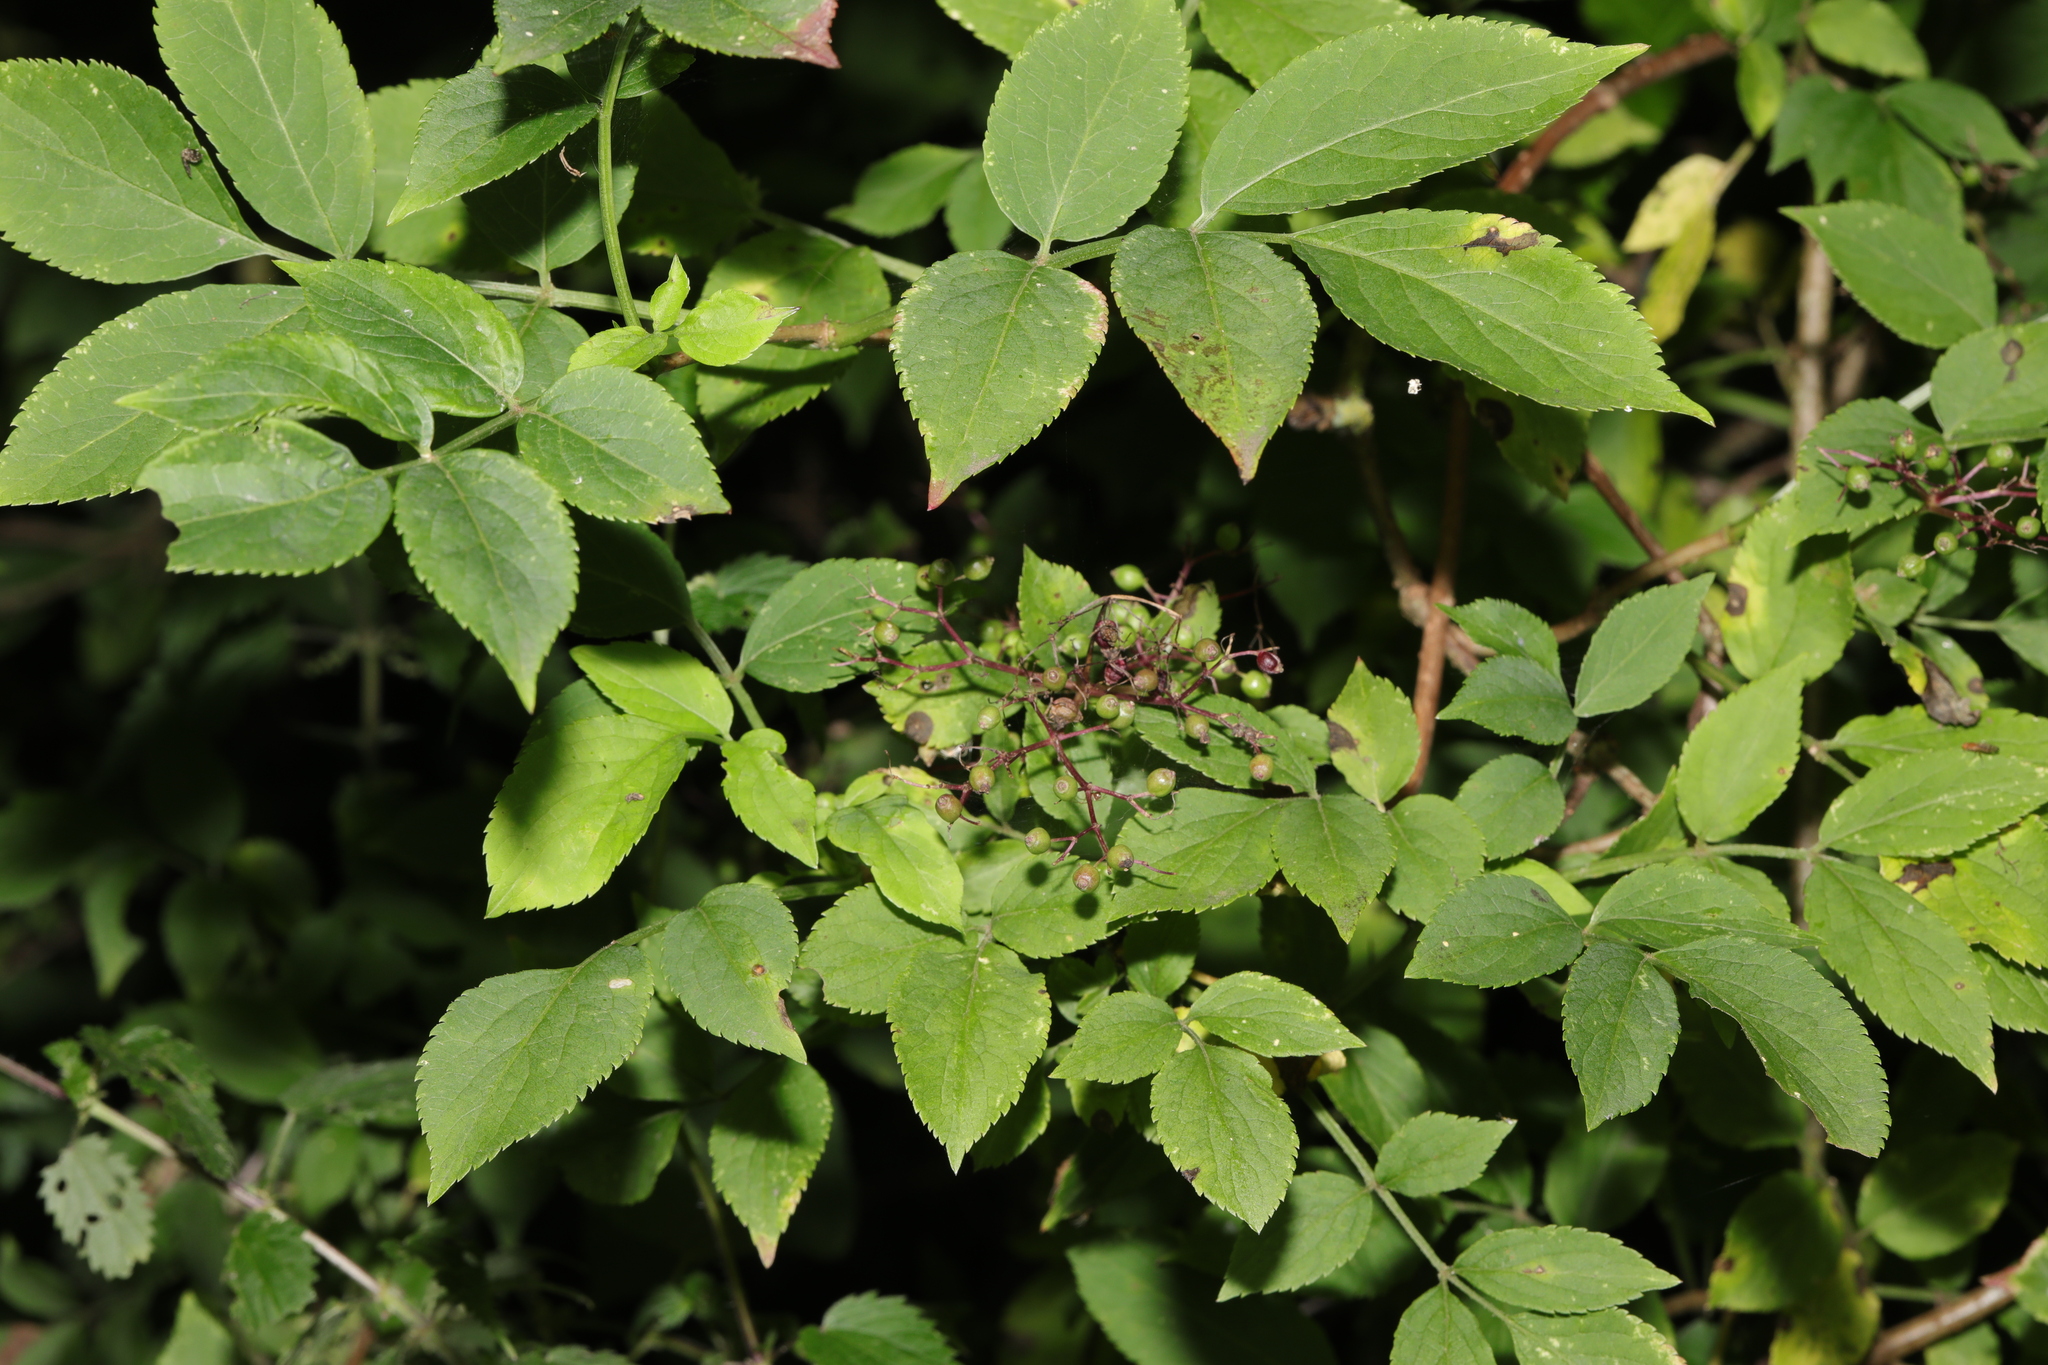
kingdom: Plantae
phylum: Tracheophyta
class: Magnoliopsida
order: Dipsacales
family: Viburnaceae
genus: Sambucus
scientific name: Sambucus nigra
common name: Elder
